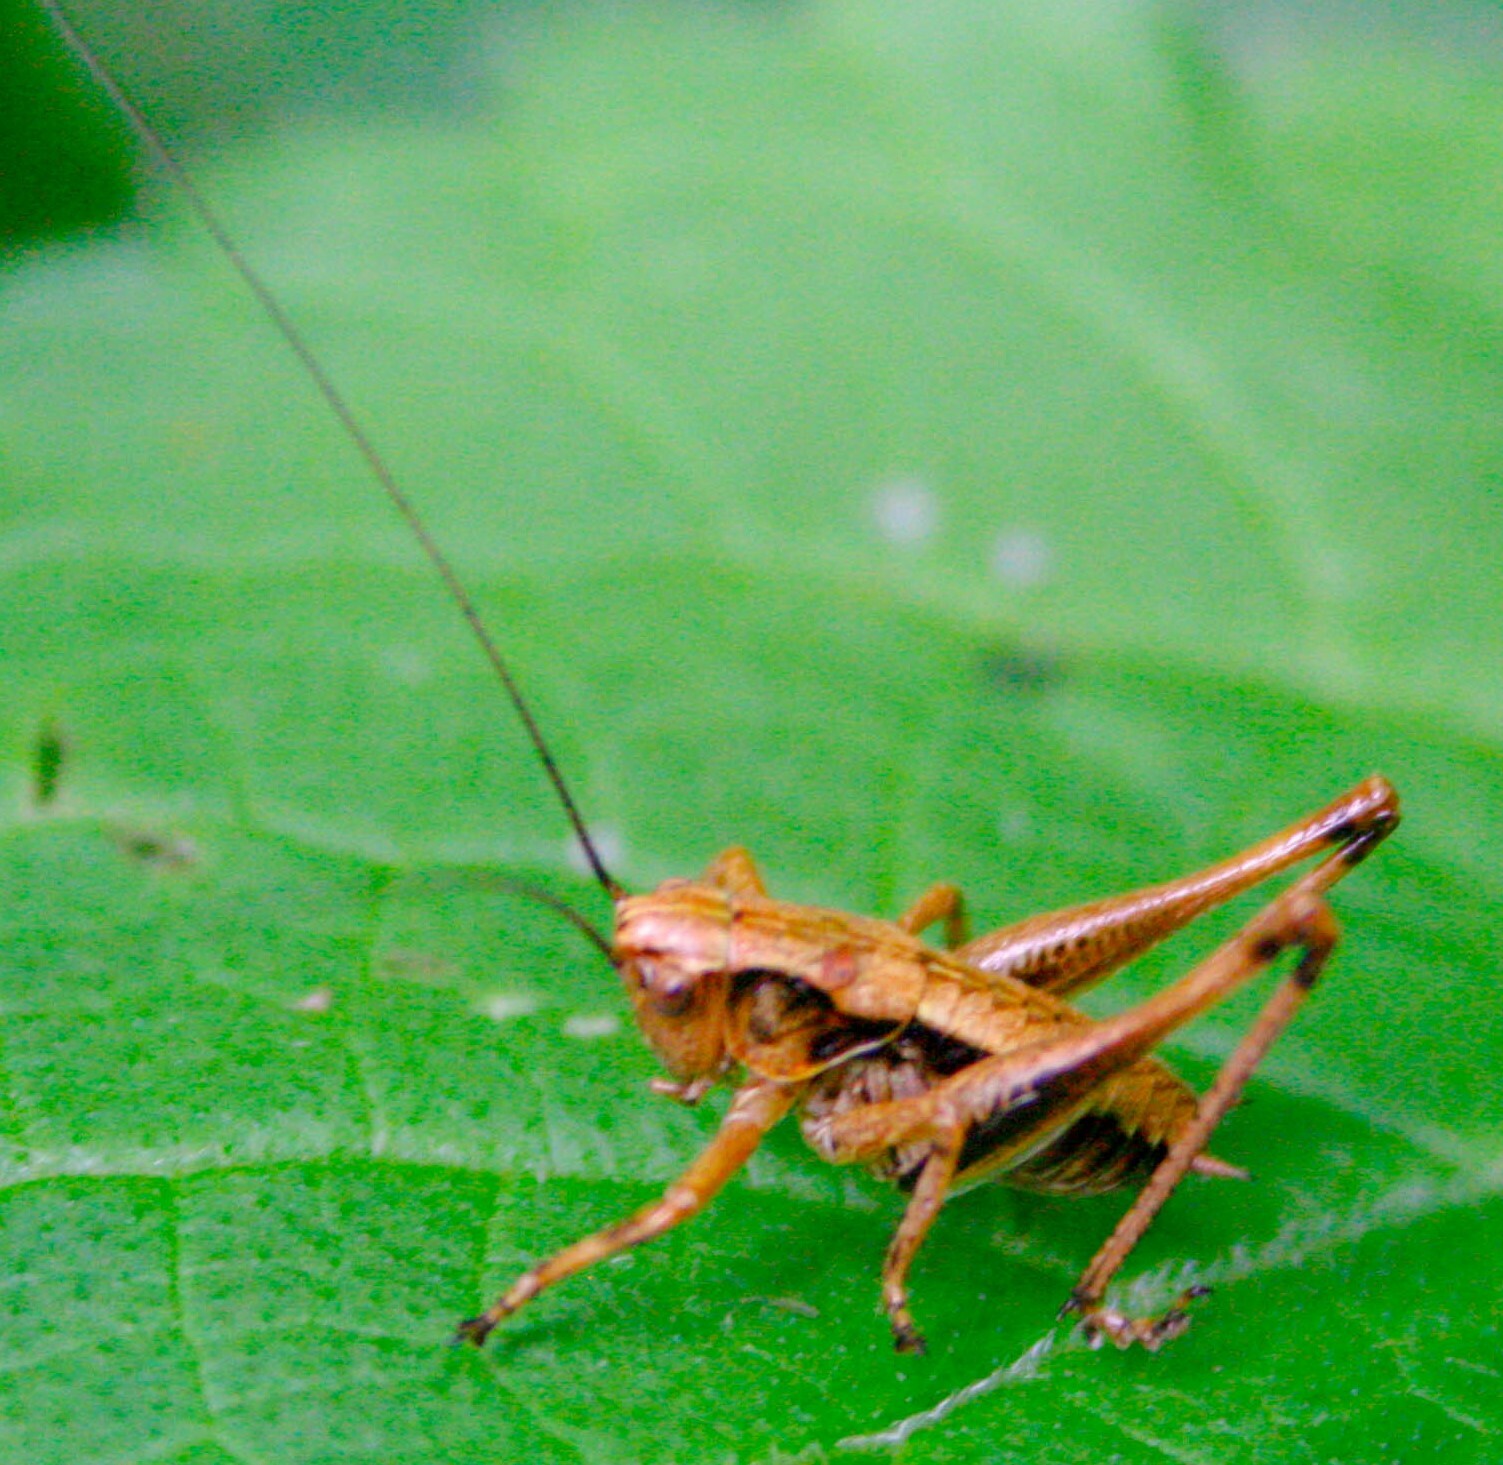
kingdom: Animalia
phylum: Arthropoda
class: Insecta
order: Orthoptera
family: Tettigoniidae
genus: Pholidoptera
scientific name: Pholidoptera griseoaptera
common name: Dark bush-cricket
